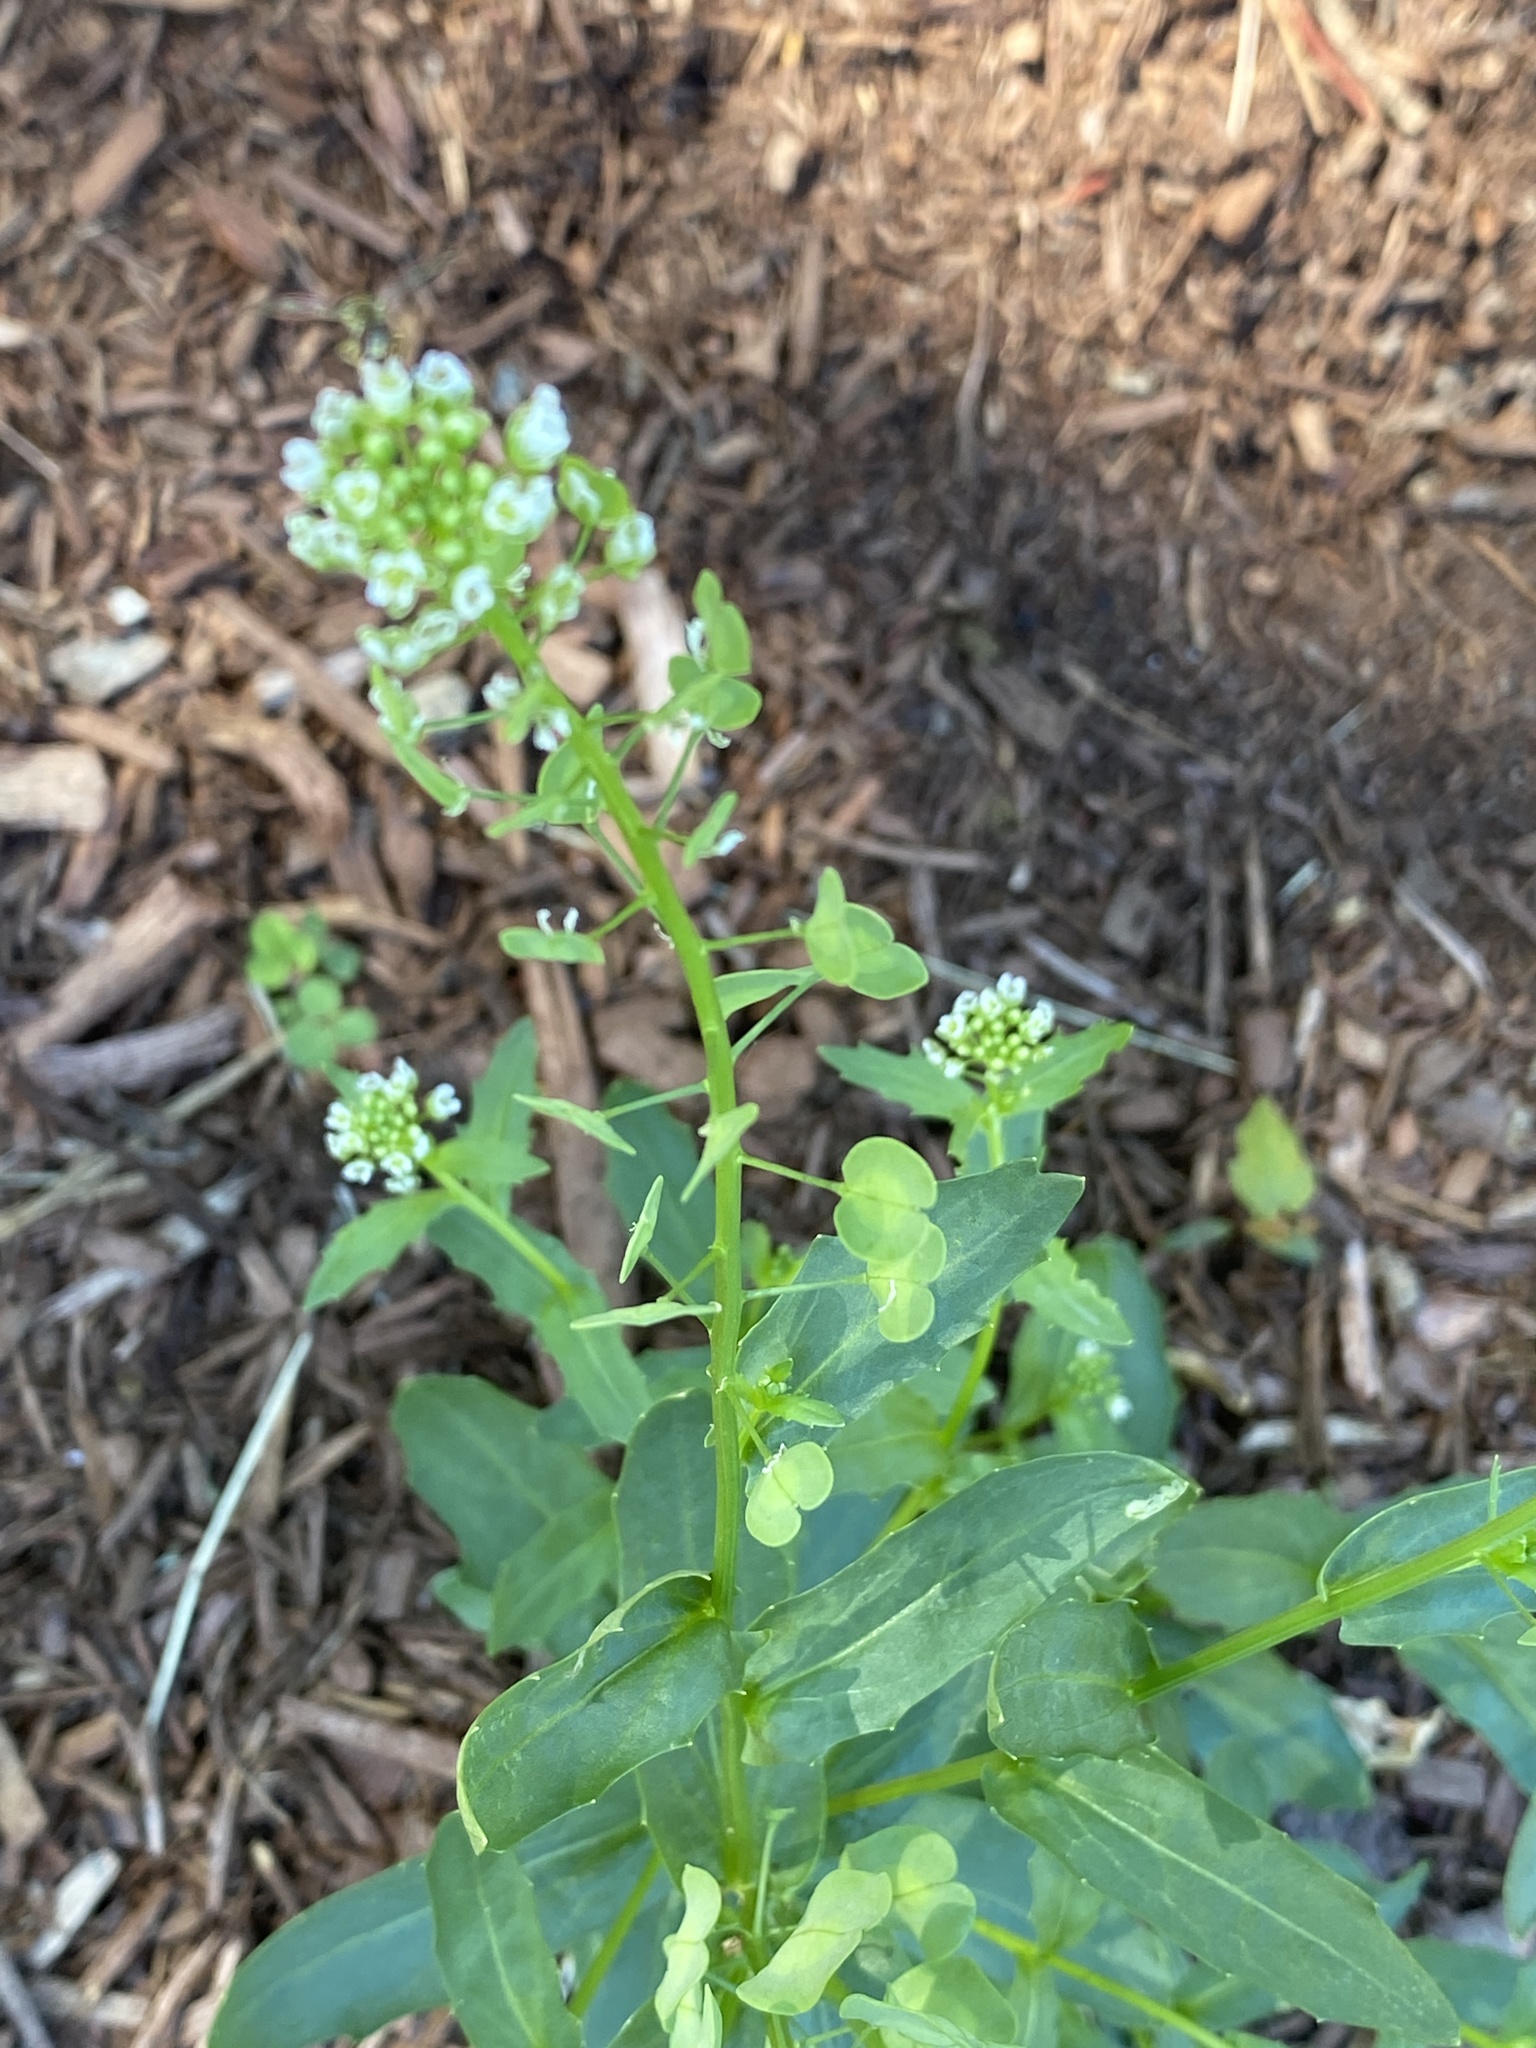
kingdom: Plantae
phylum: Tracheophyta
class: Magnoliopsida
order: Brassicales
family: Brassicaceae
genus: Thlaspi
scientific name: Thlaspi arvense
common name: Field pennycress
